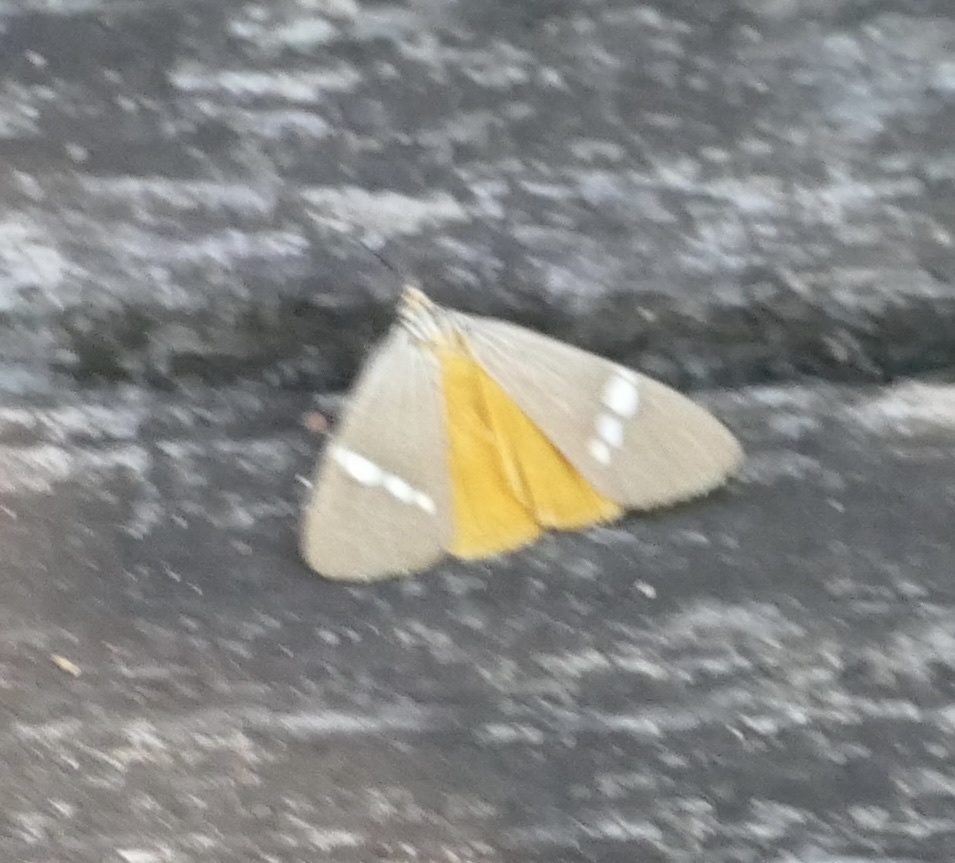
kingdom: Animalia
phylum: Arthropoda
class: Insecta
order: Lepidoptera
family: Erebidae
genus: Secusio
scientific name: Secusio strigata
